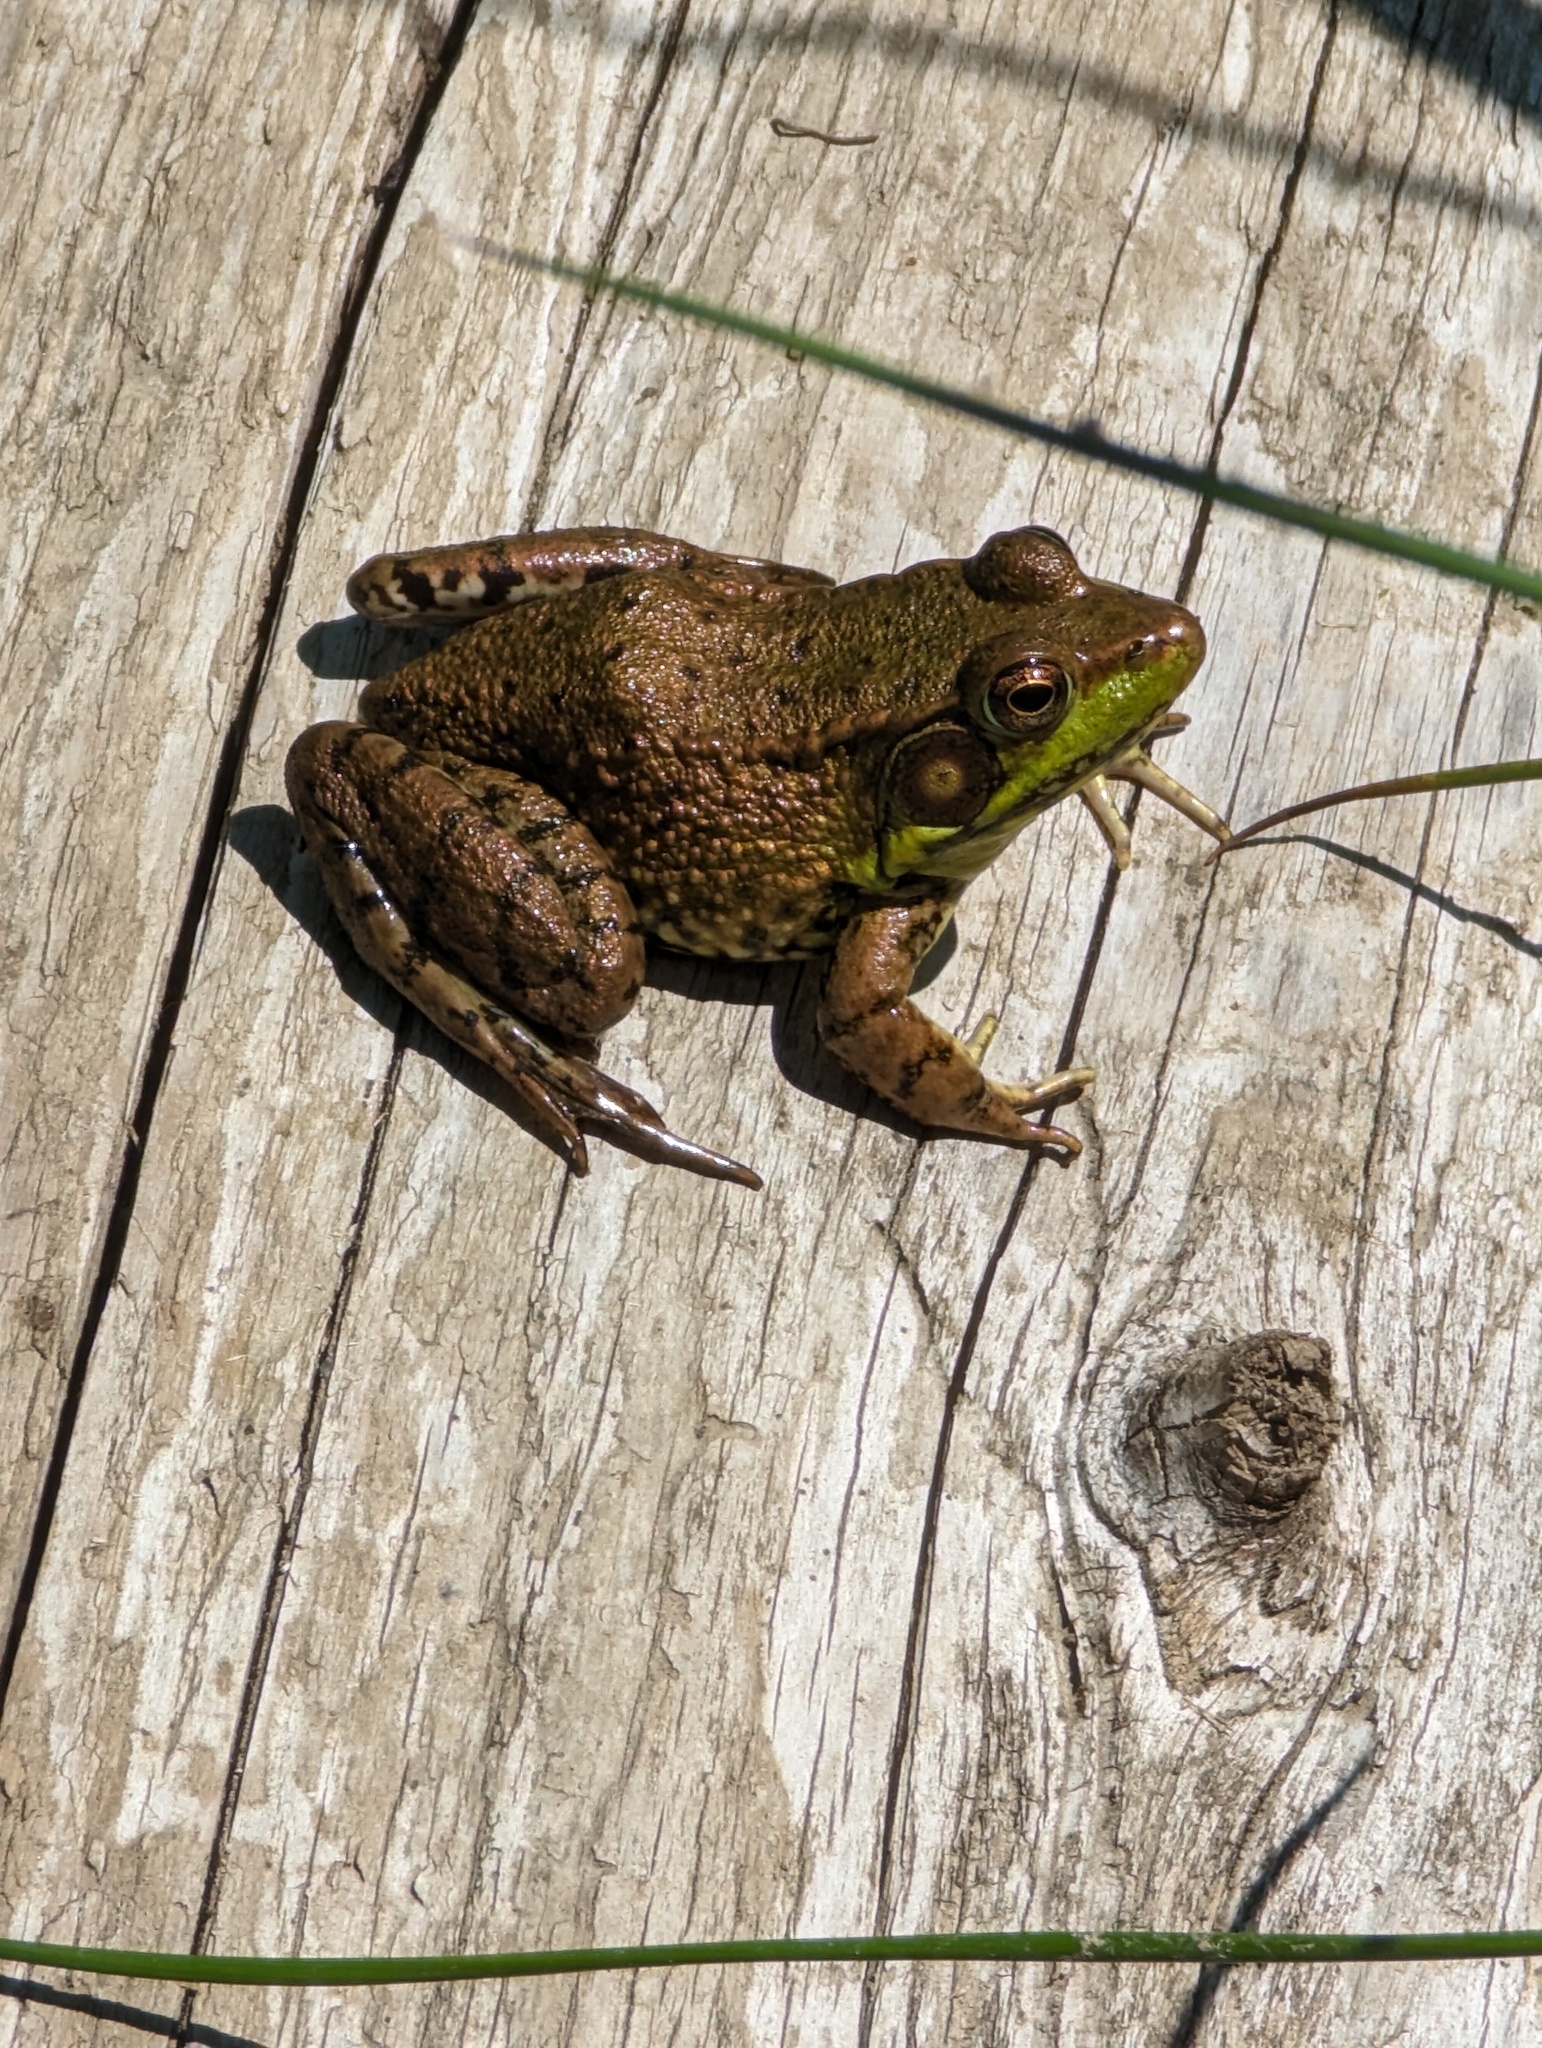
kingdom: Animalia
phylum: Chordata
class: Amphibia
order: Anura
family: Ranidae
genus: Lithobates
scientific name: Lithobates clamitans
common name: Green frog
